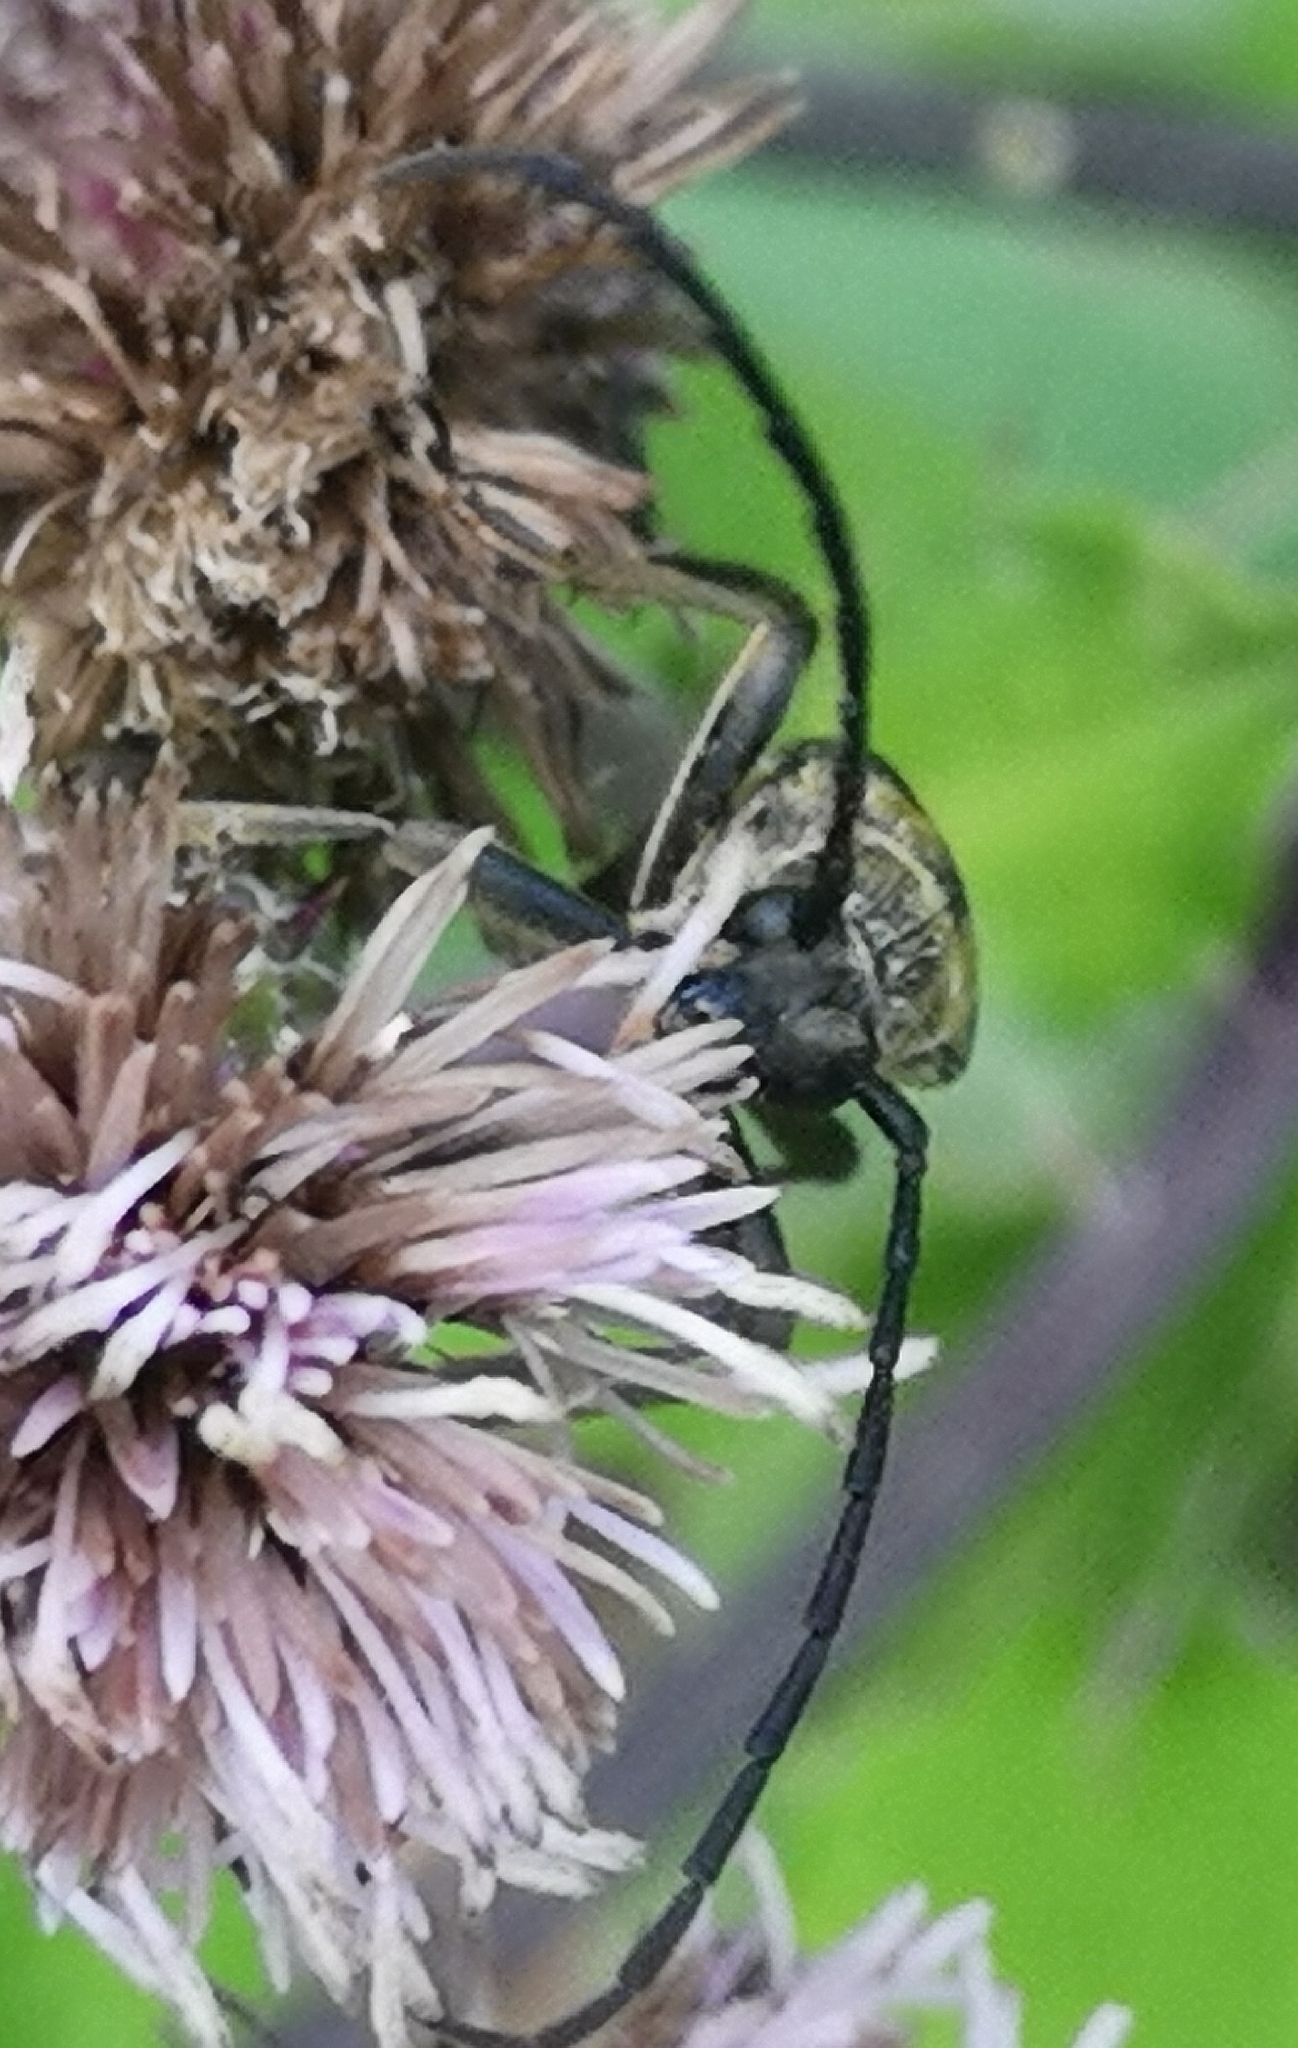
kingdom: Animalia
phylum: Arthropoda
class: Insecta
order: Coleoptera
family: Cerambycidae
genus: Leptura
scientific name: Leptura quadrifasciata
